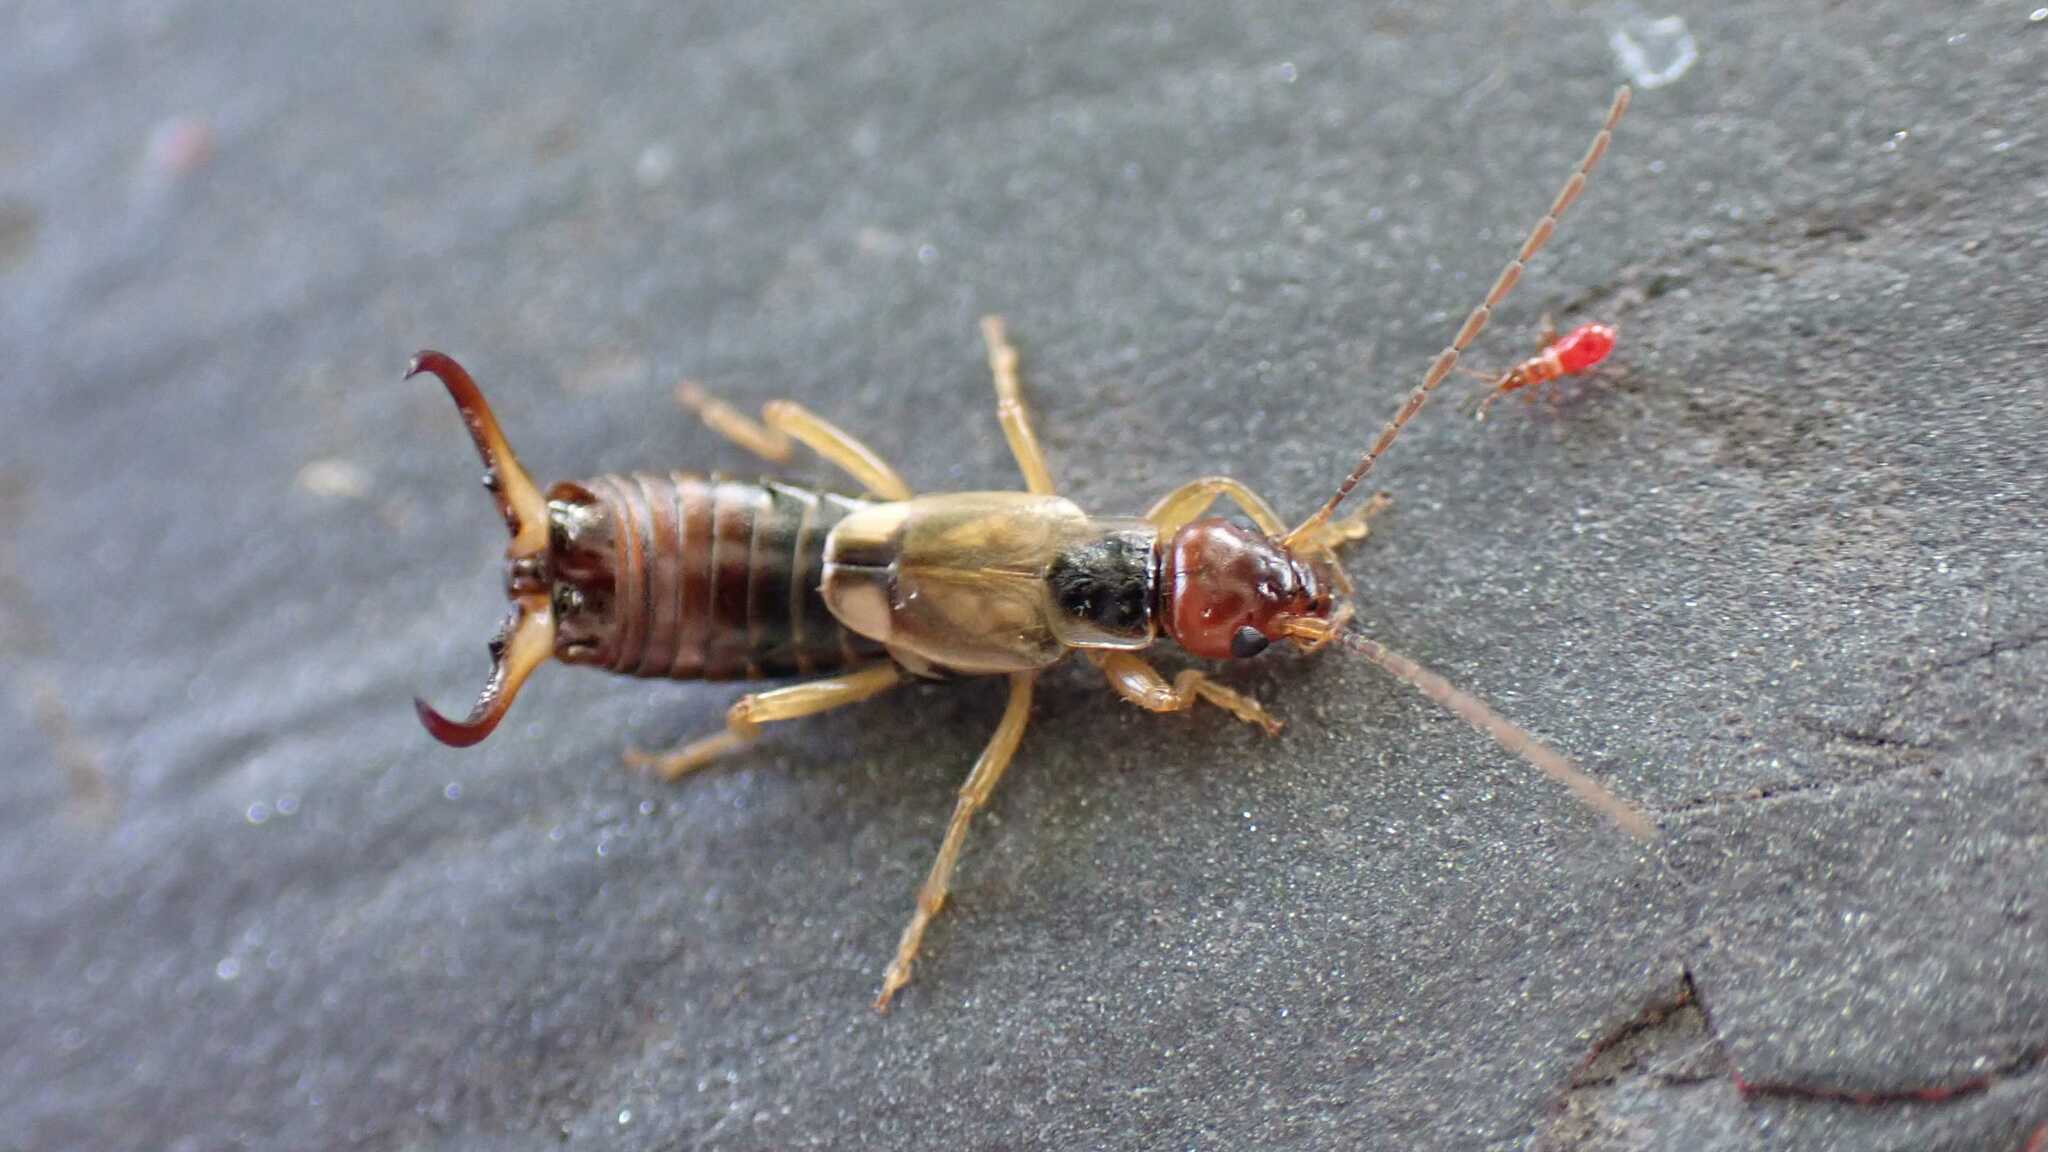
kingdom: Animalia
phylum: Arthropoda
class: Insecta
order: Dermaptera
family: Forficulidae
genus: Forficula
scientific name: Forficula
